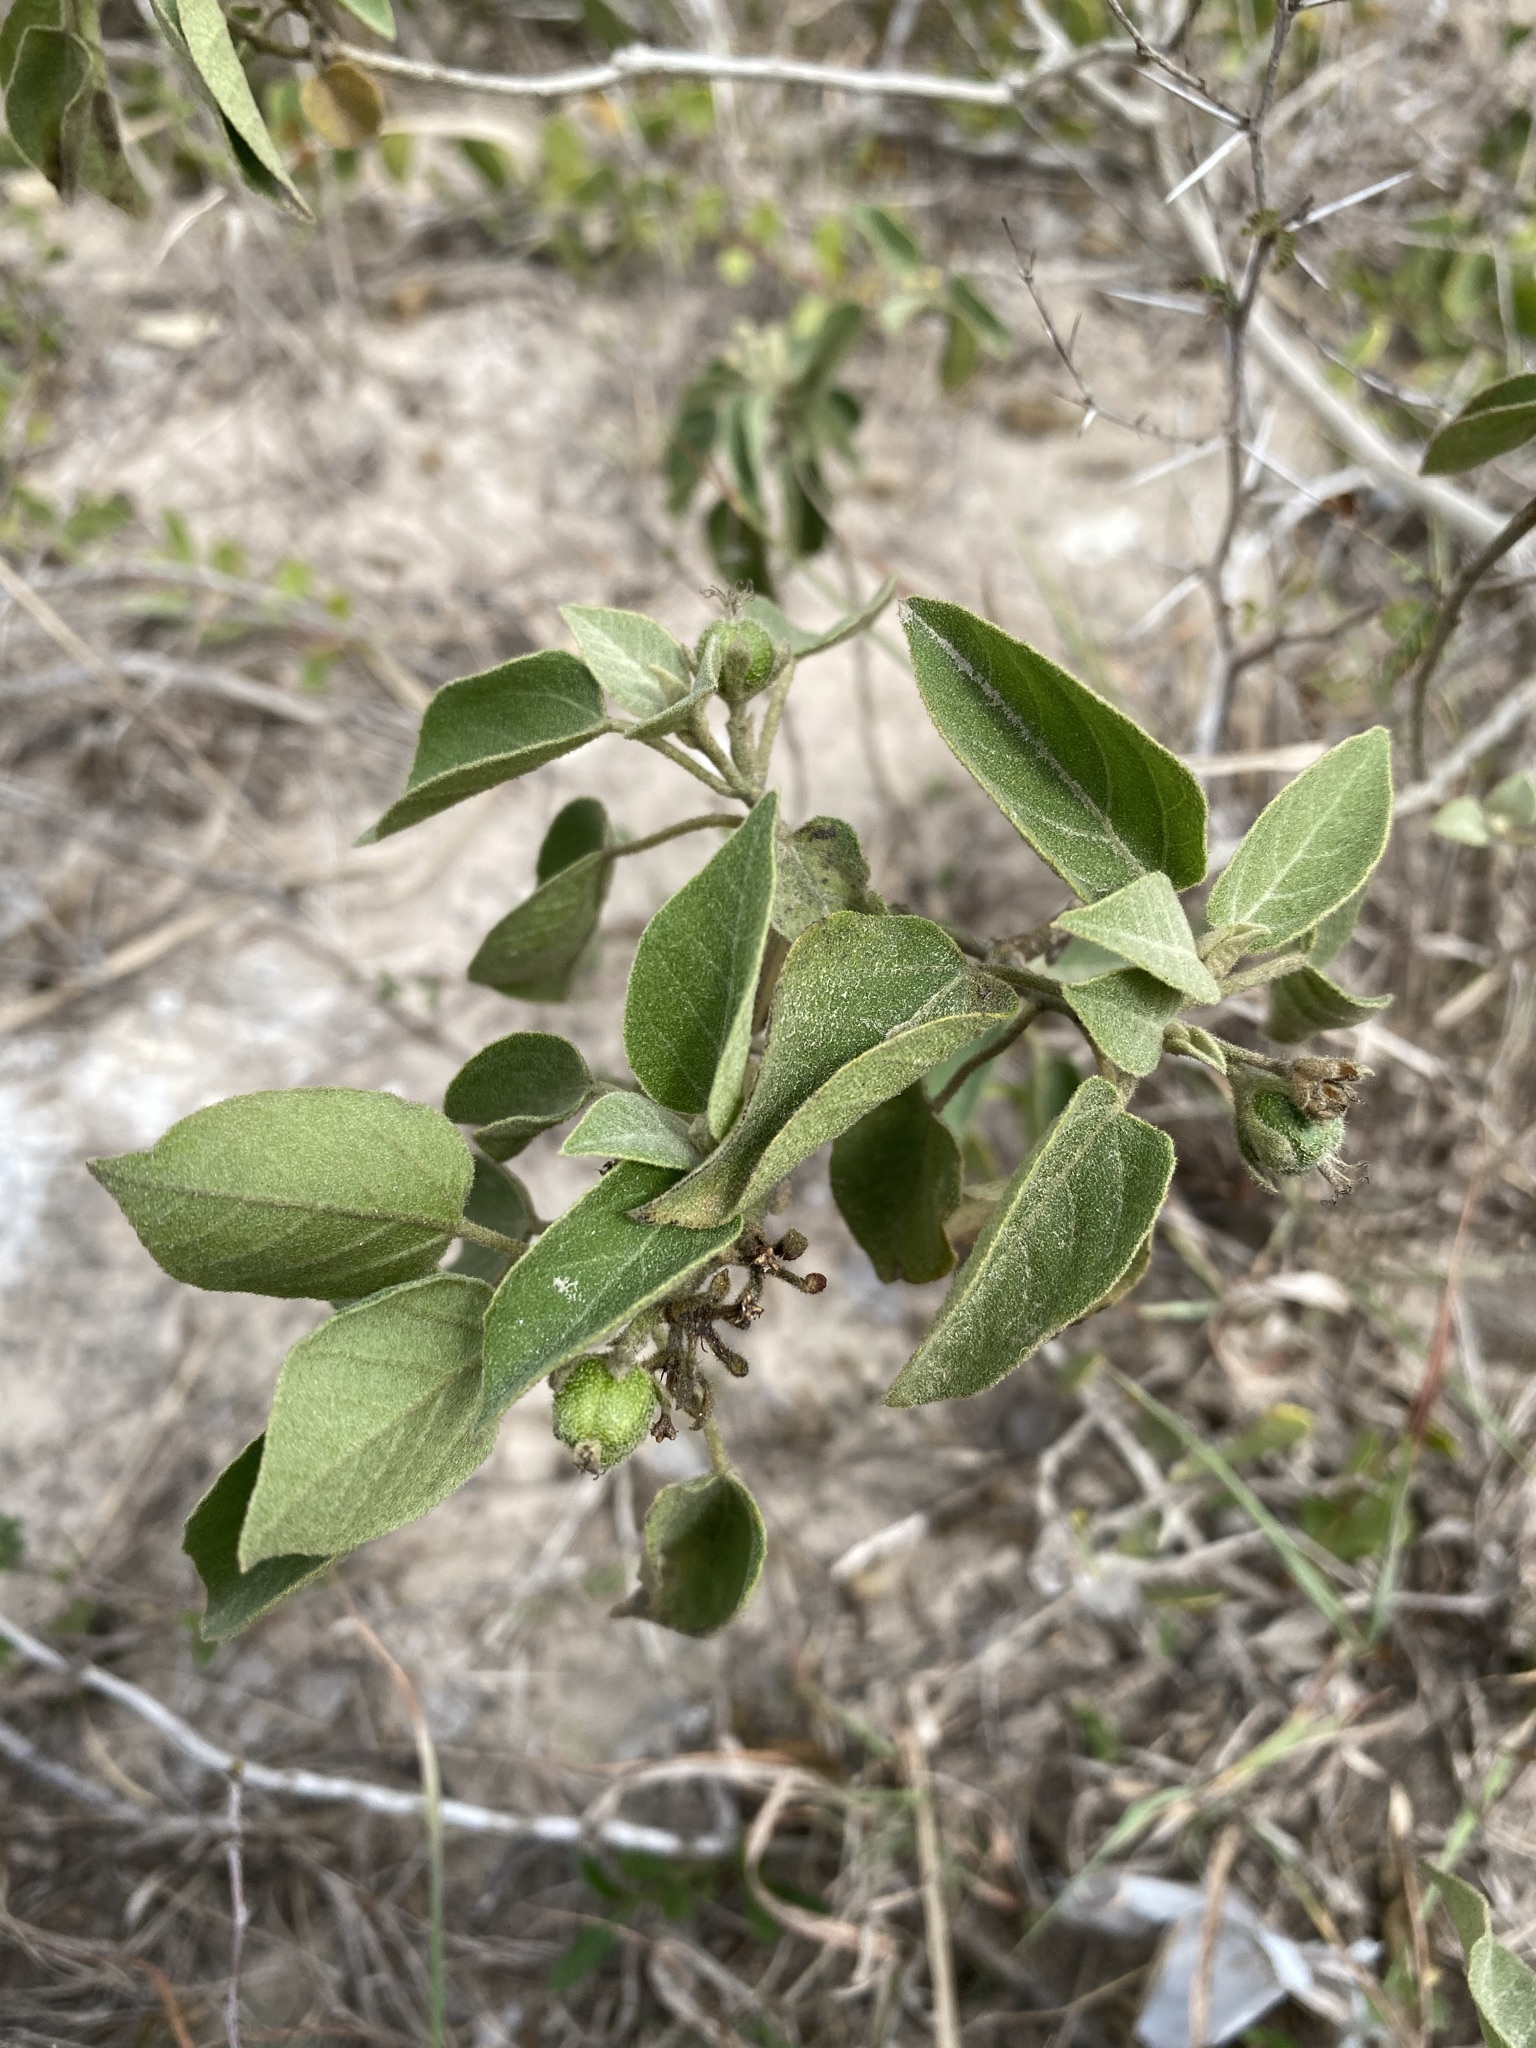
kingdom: Plantae
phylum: Tracheophyta
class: Magnoliopsida
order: Malpighiales
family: Euphorbiaceae
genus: Croton
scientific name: Croton humilis
